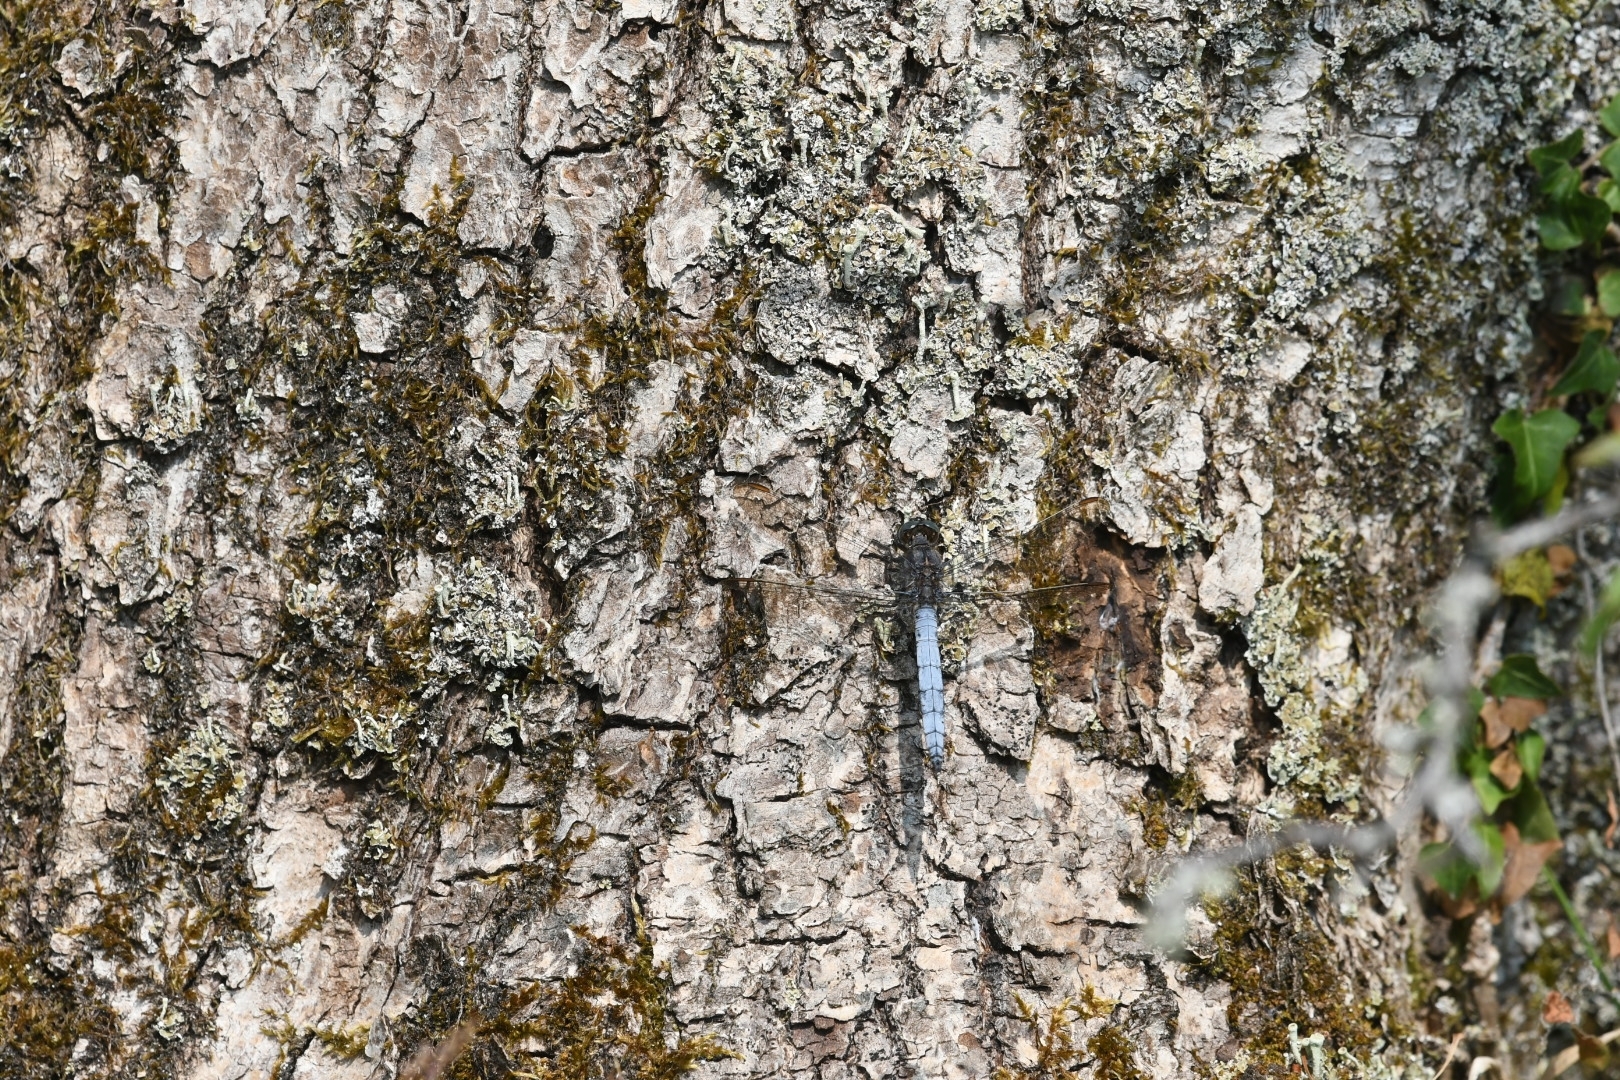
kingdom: Animalia
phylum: Arthropoda
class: Insecta
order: Odonata
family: Libellulidae
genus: Orthetrum
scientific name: Orthetrum cancellatum
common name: Black-tailed skimmer
